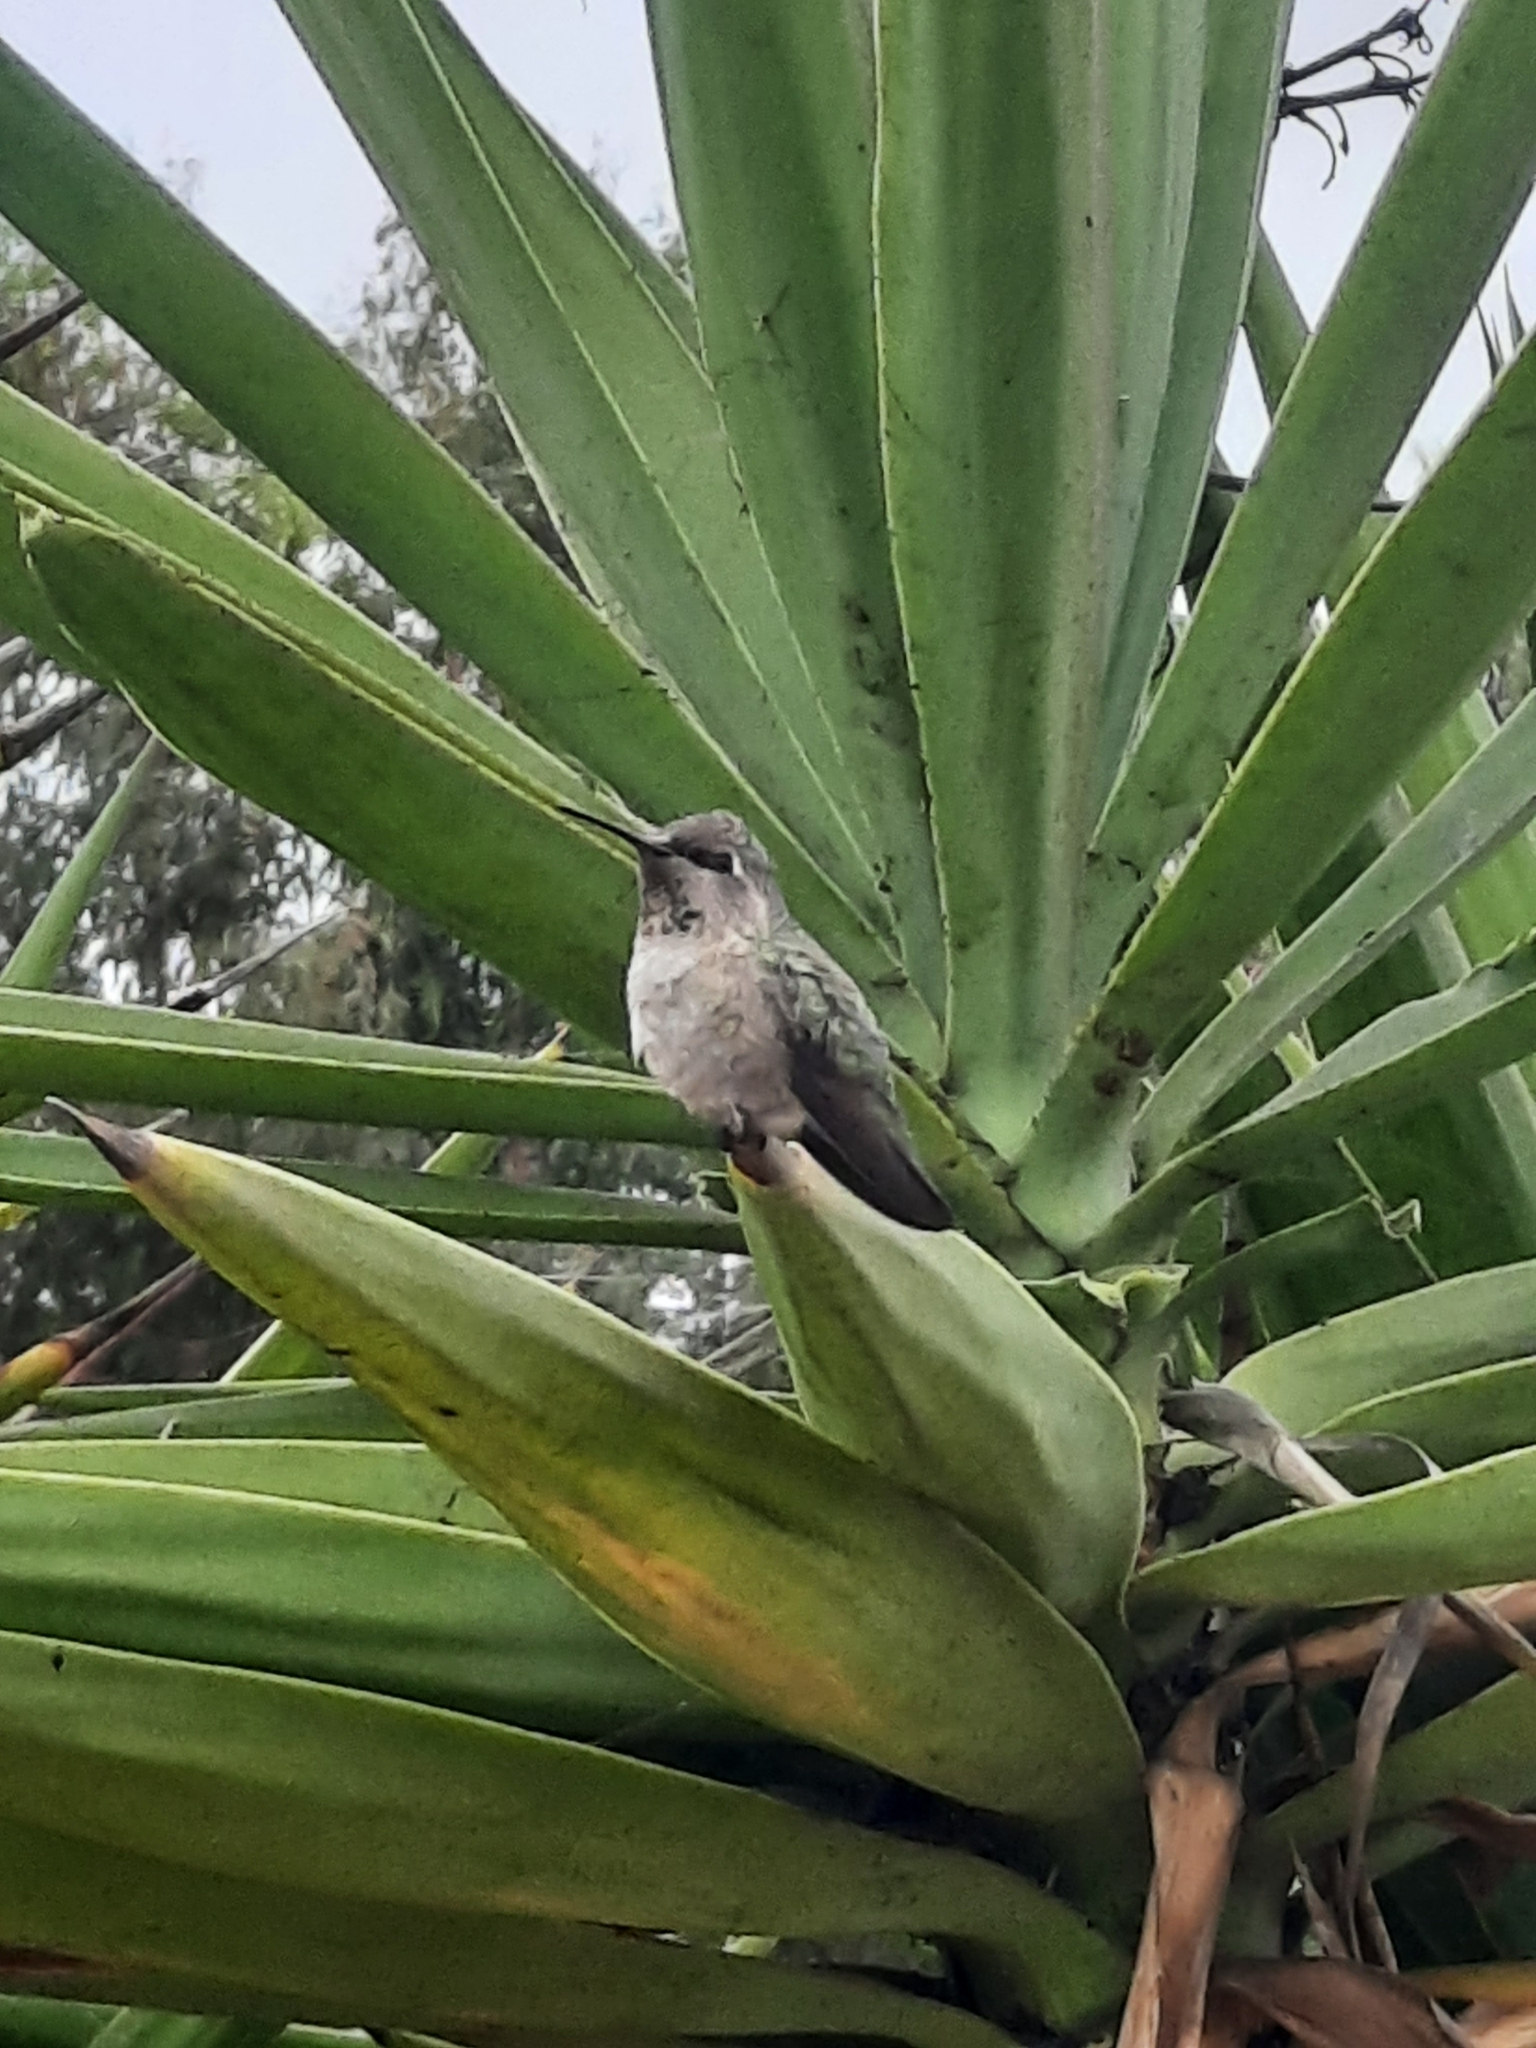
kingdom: Animalia
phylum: Chordata
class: Aves
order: Apodiformes
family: Trochilidae
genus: Calypte
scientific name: Calypte anna
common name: Anna's hummingbird
